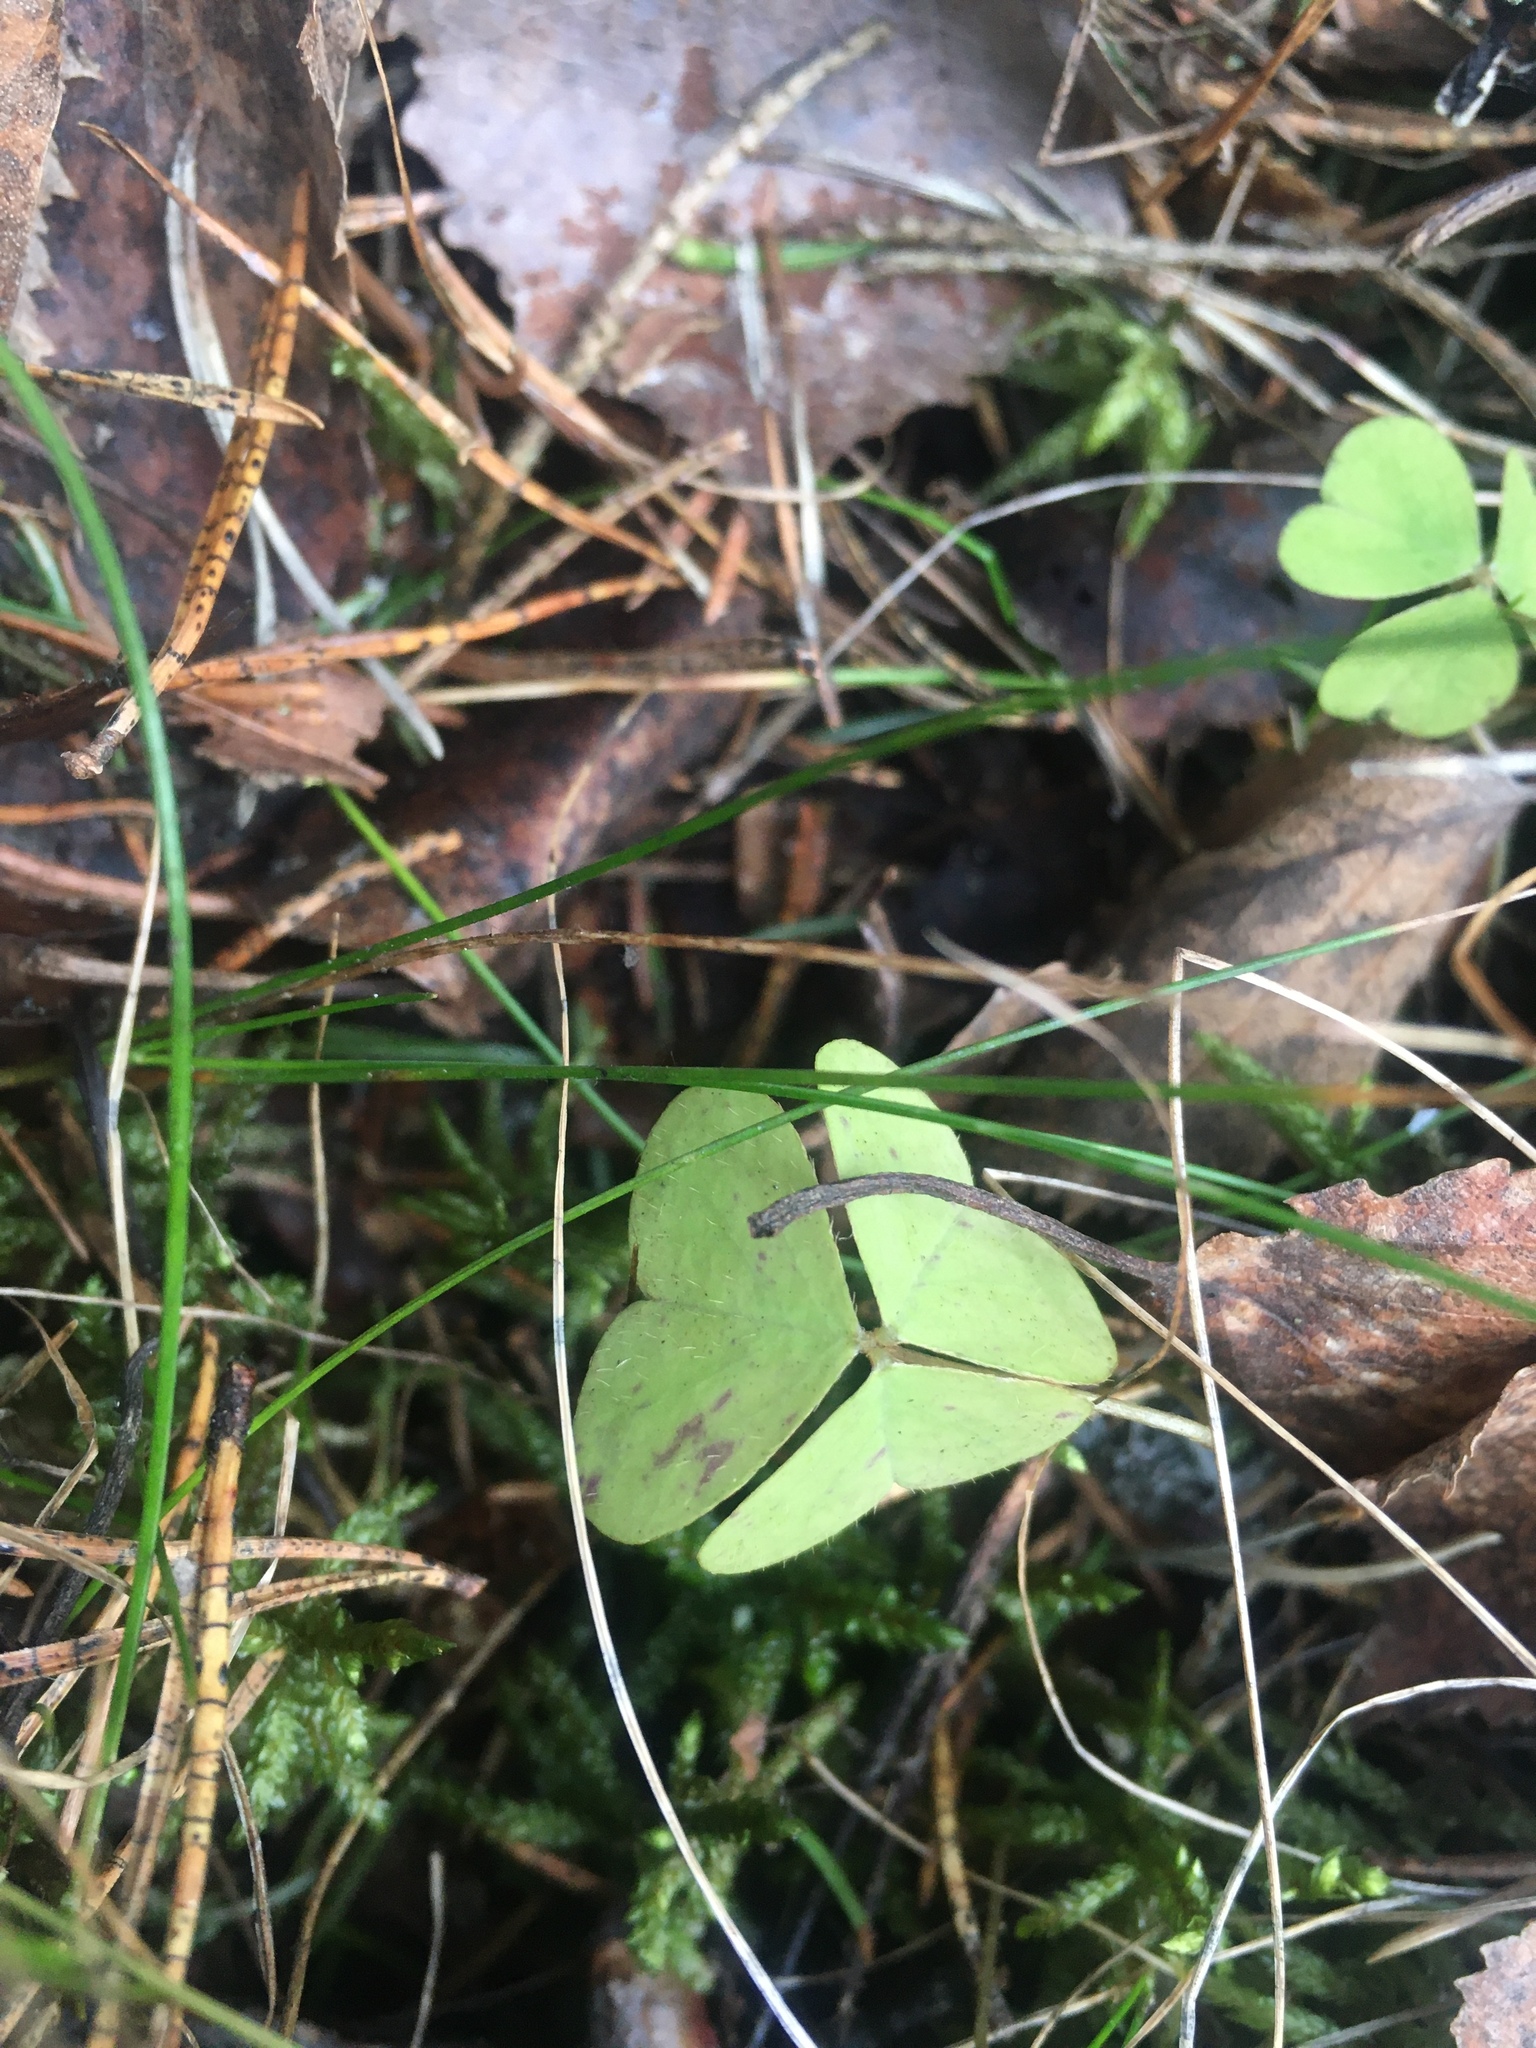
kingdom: Plantae
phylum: Tracheophyta
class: Magnoliopsida
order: Oxalidales
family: Oxalidaceae
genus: Oxalis
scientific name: Oxalis acetosella
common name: Wood-sorrel
